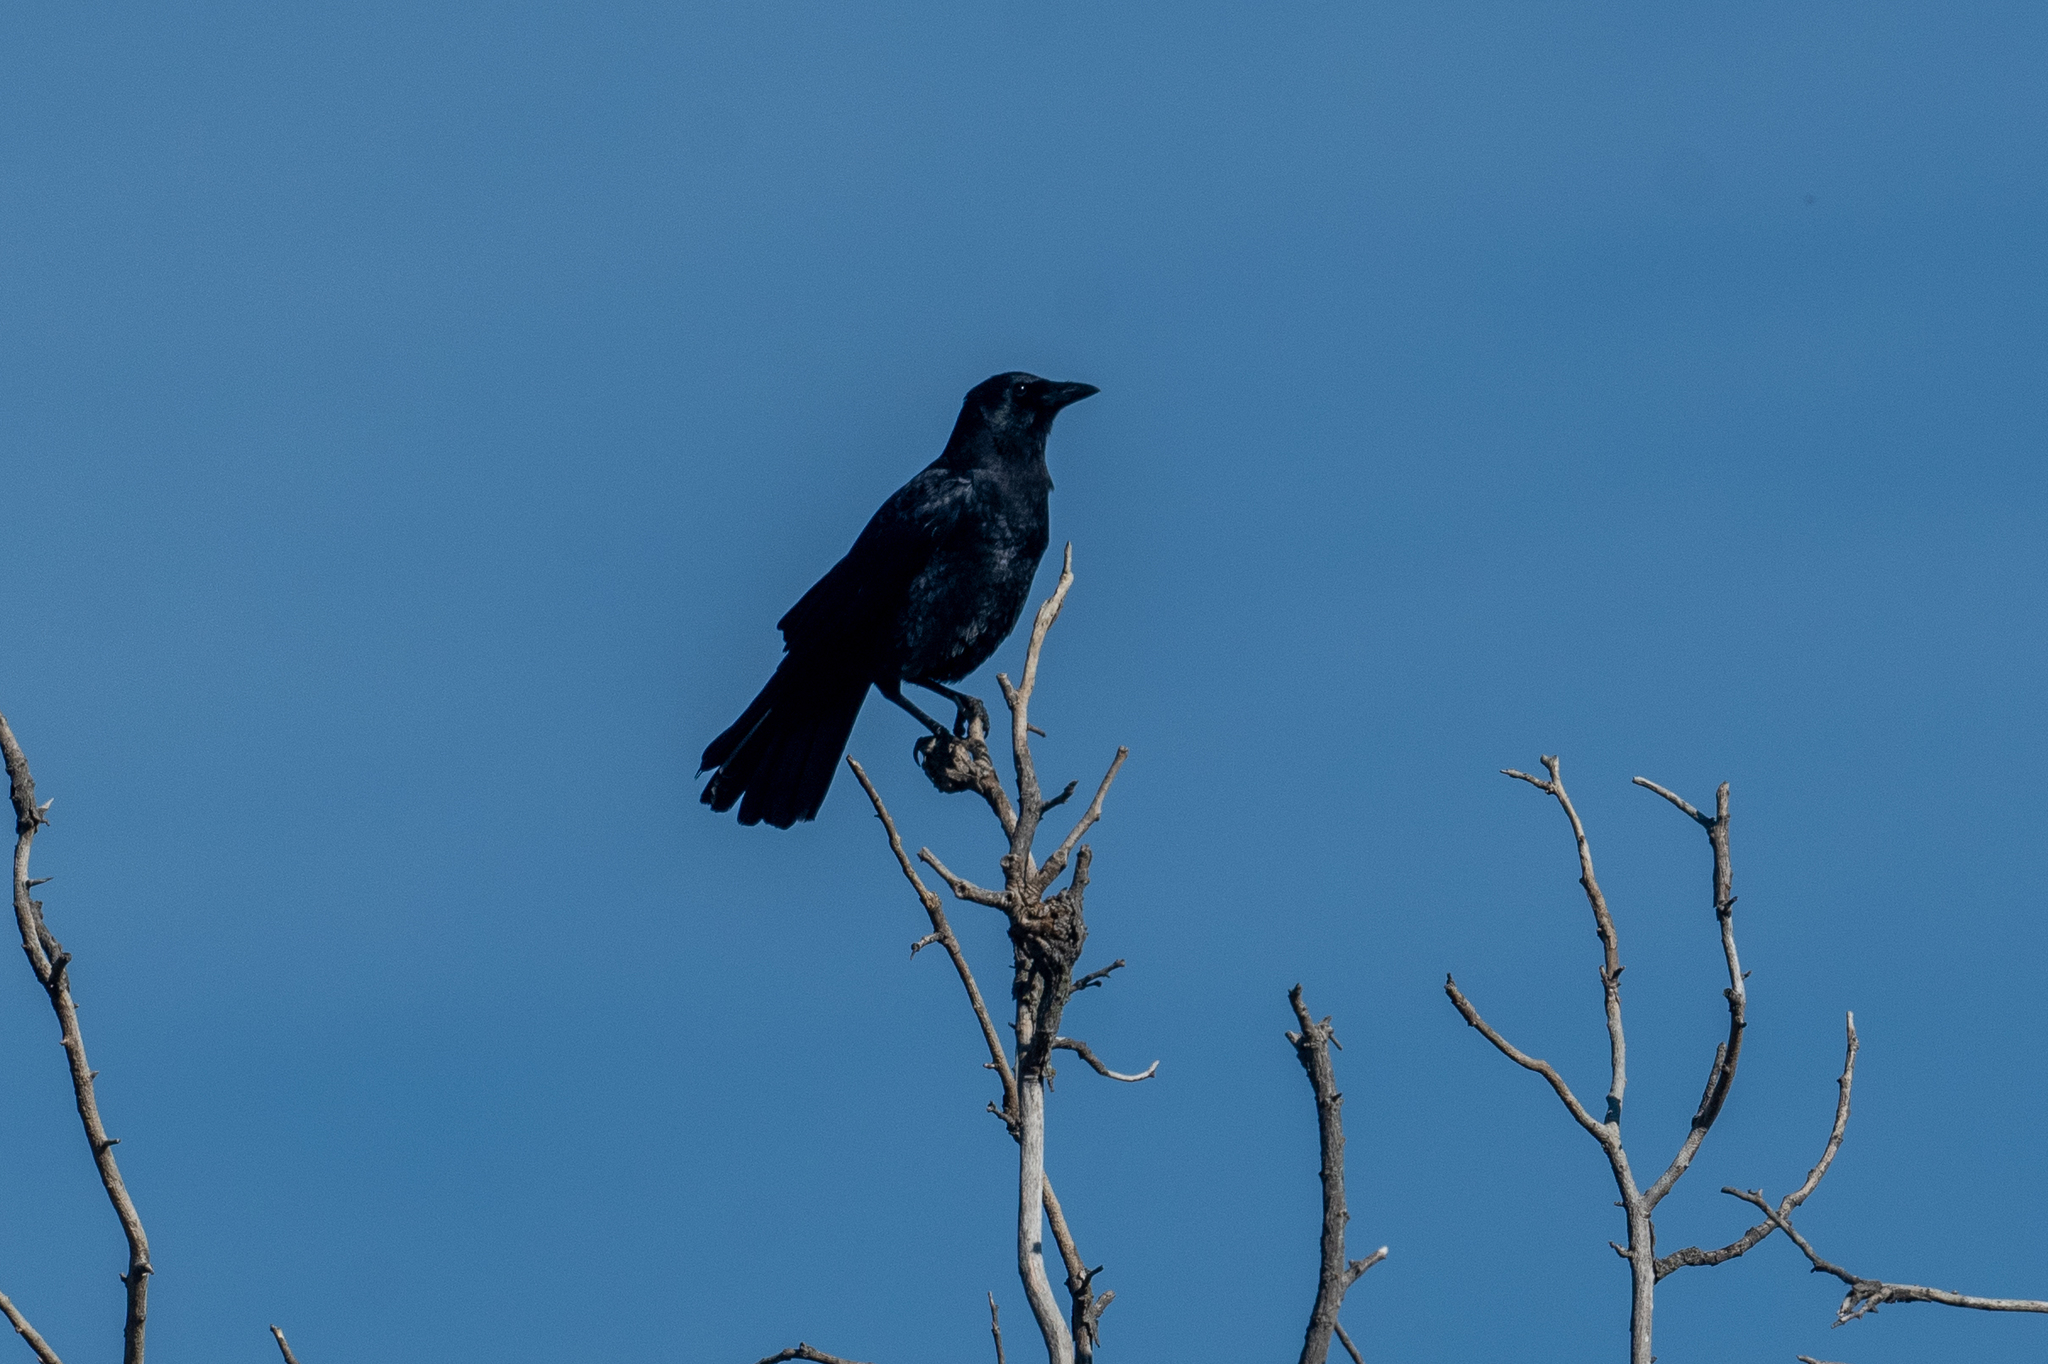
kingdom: Animalia
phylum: Chordata
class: Aves
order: Passeriformes
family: Corvidae
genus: Corvus
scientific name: Corvus brachyrhynchos
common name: American crow
